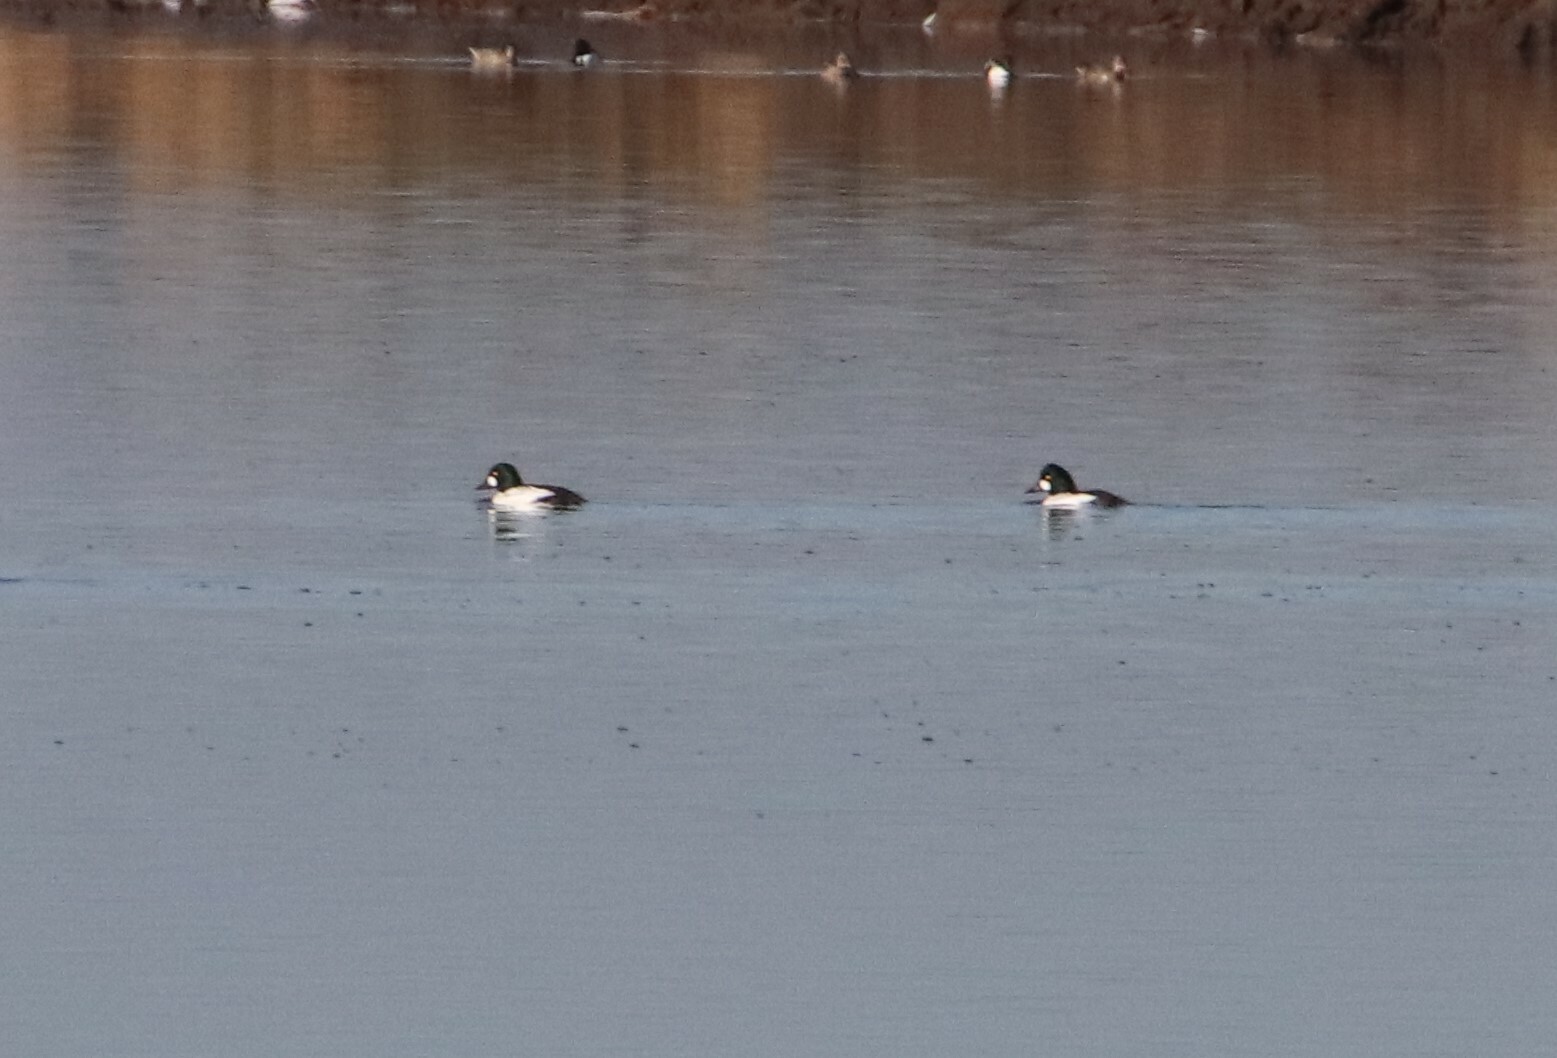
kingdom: Animalia
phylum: Chordata
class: Aves
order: Anseriformes
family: Anatidae
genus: Bucephala
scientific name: Bucephala clangula
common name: Common goldeneye
